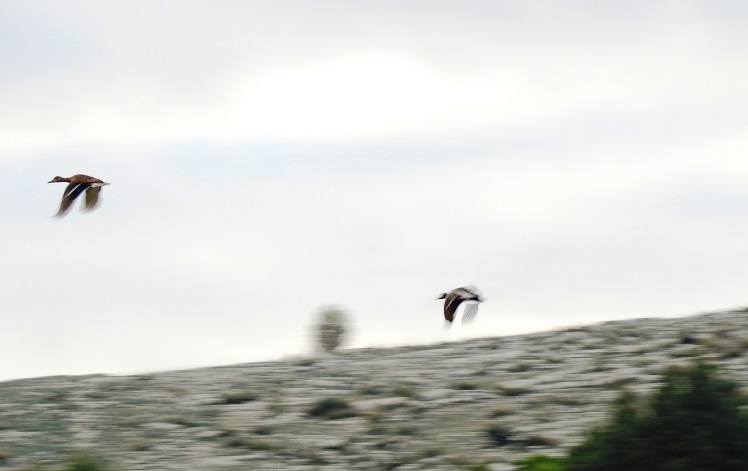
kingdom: Animalia
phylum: Chordata
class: Aves
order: Anseriformes
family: Anatidae
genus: Anas
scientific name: Anas platyrhynchos
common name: Mallard
